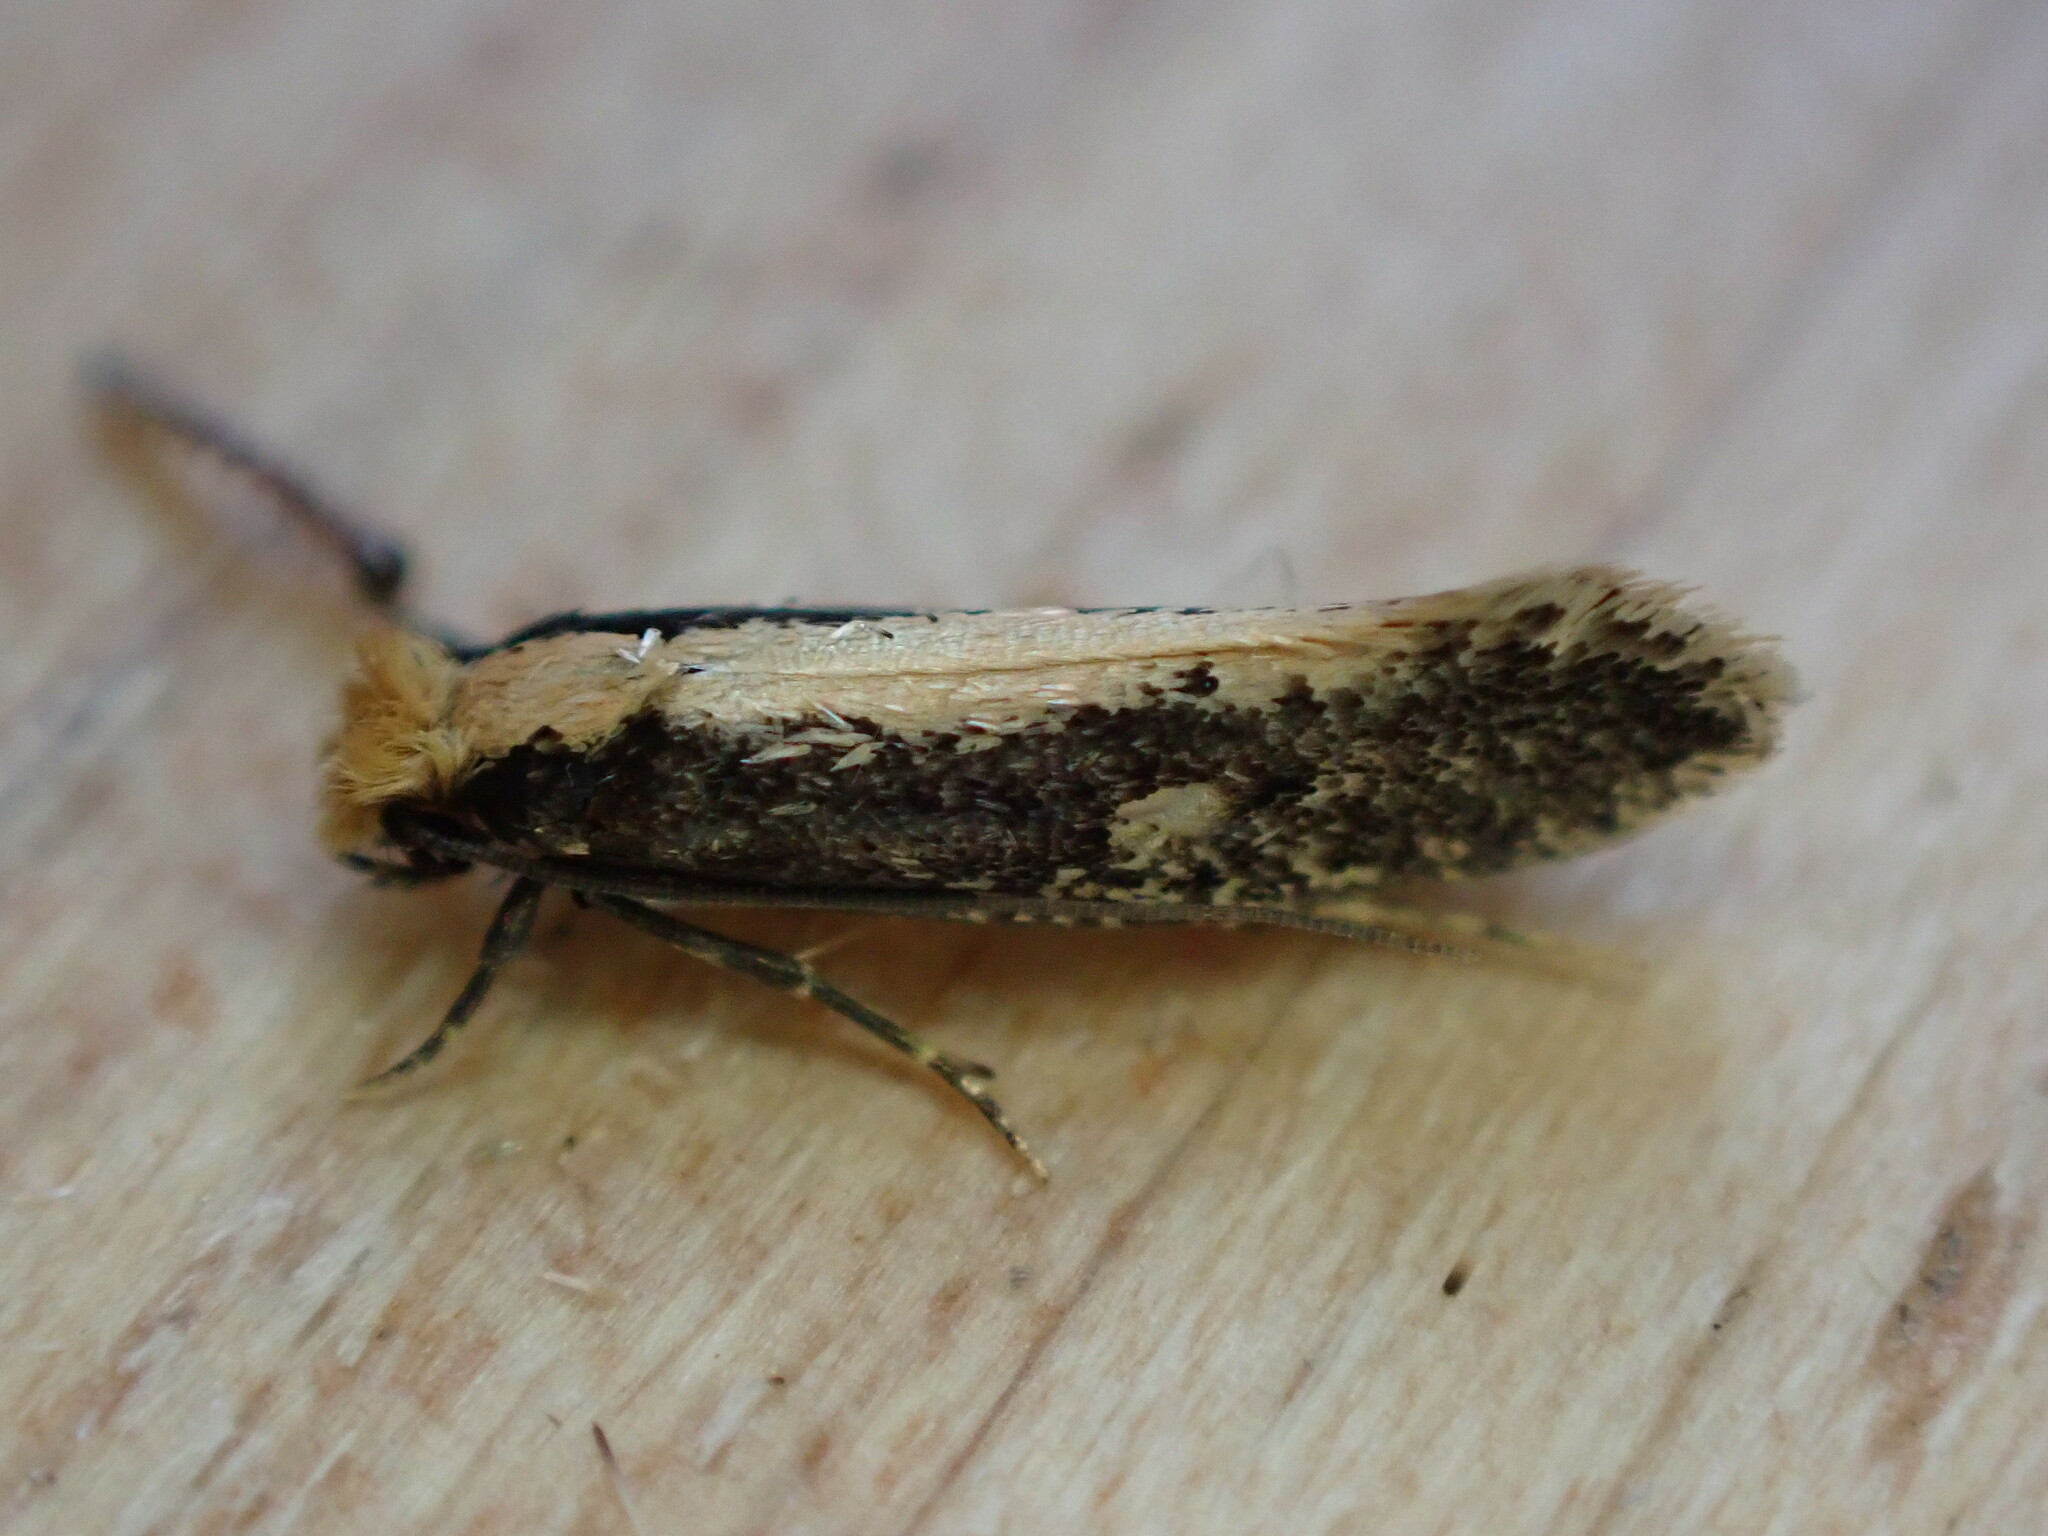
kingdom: Animalia
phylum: Arthropoda
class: Insecta
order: Lepidoptera
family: Tineidae
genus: Monopis
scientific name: Monopis crocicapitella
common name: Moth
